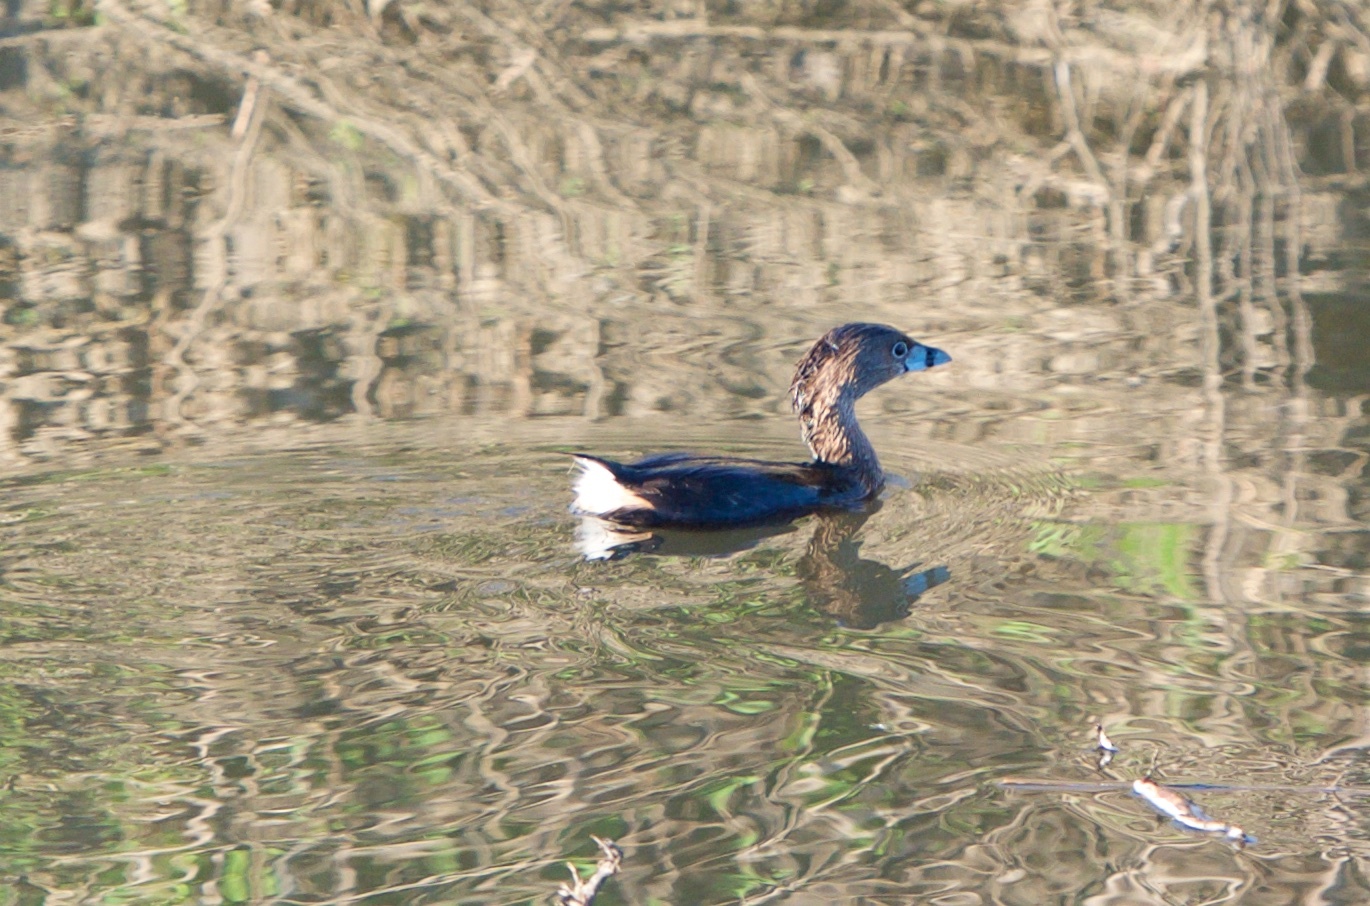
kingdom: Animalia
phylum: Chordata
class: Aves
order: Podicipediformes
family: Podicipedidae
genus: Podilymbus
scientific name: Podilymbus podiceps
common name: Pied-billed grebe
